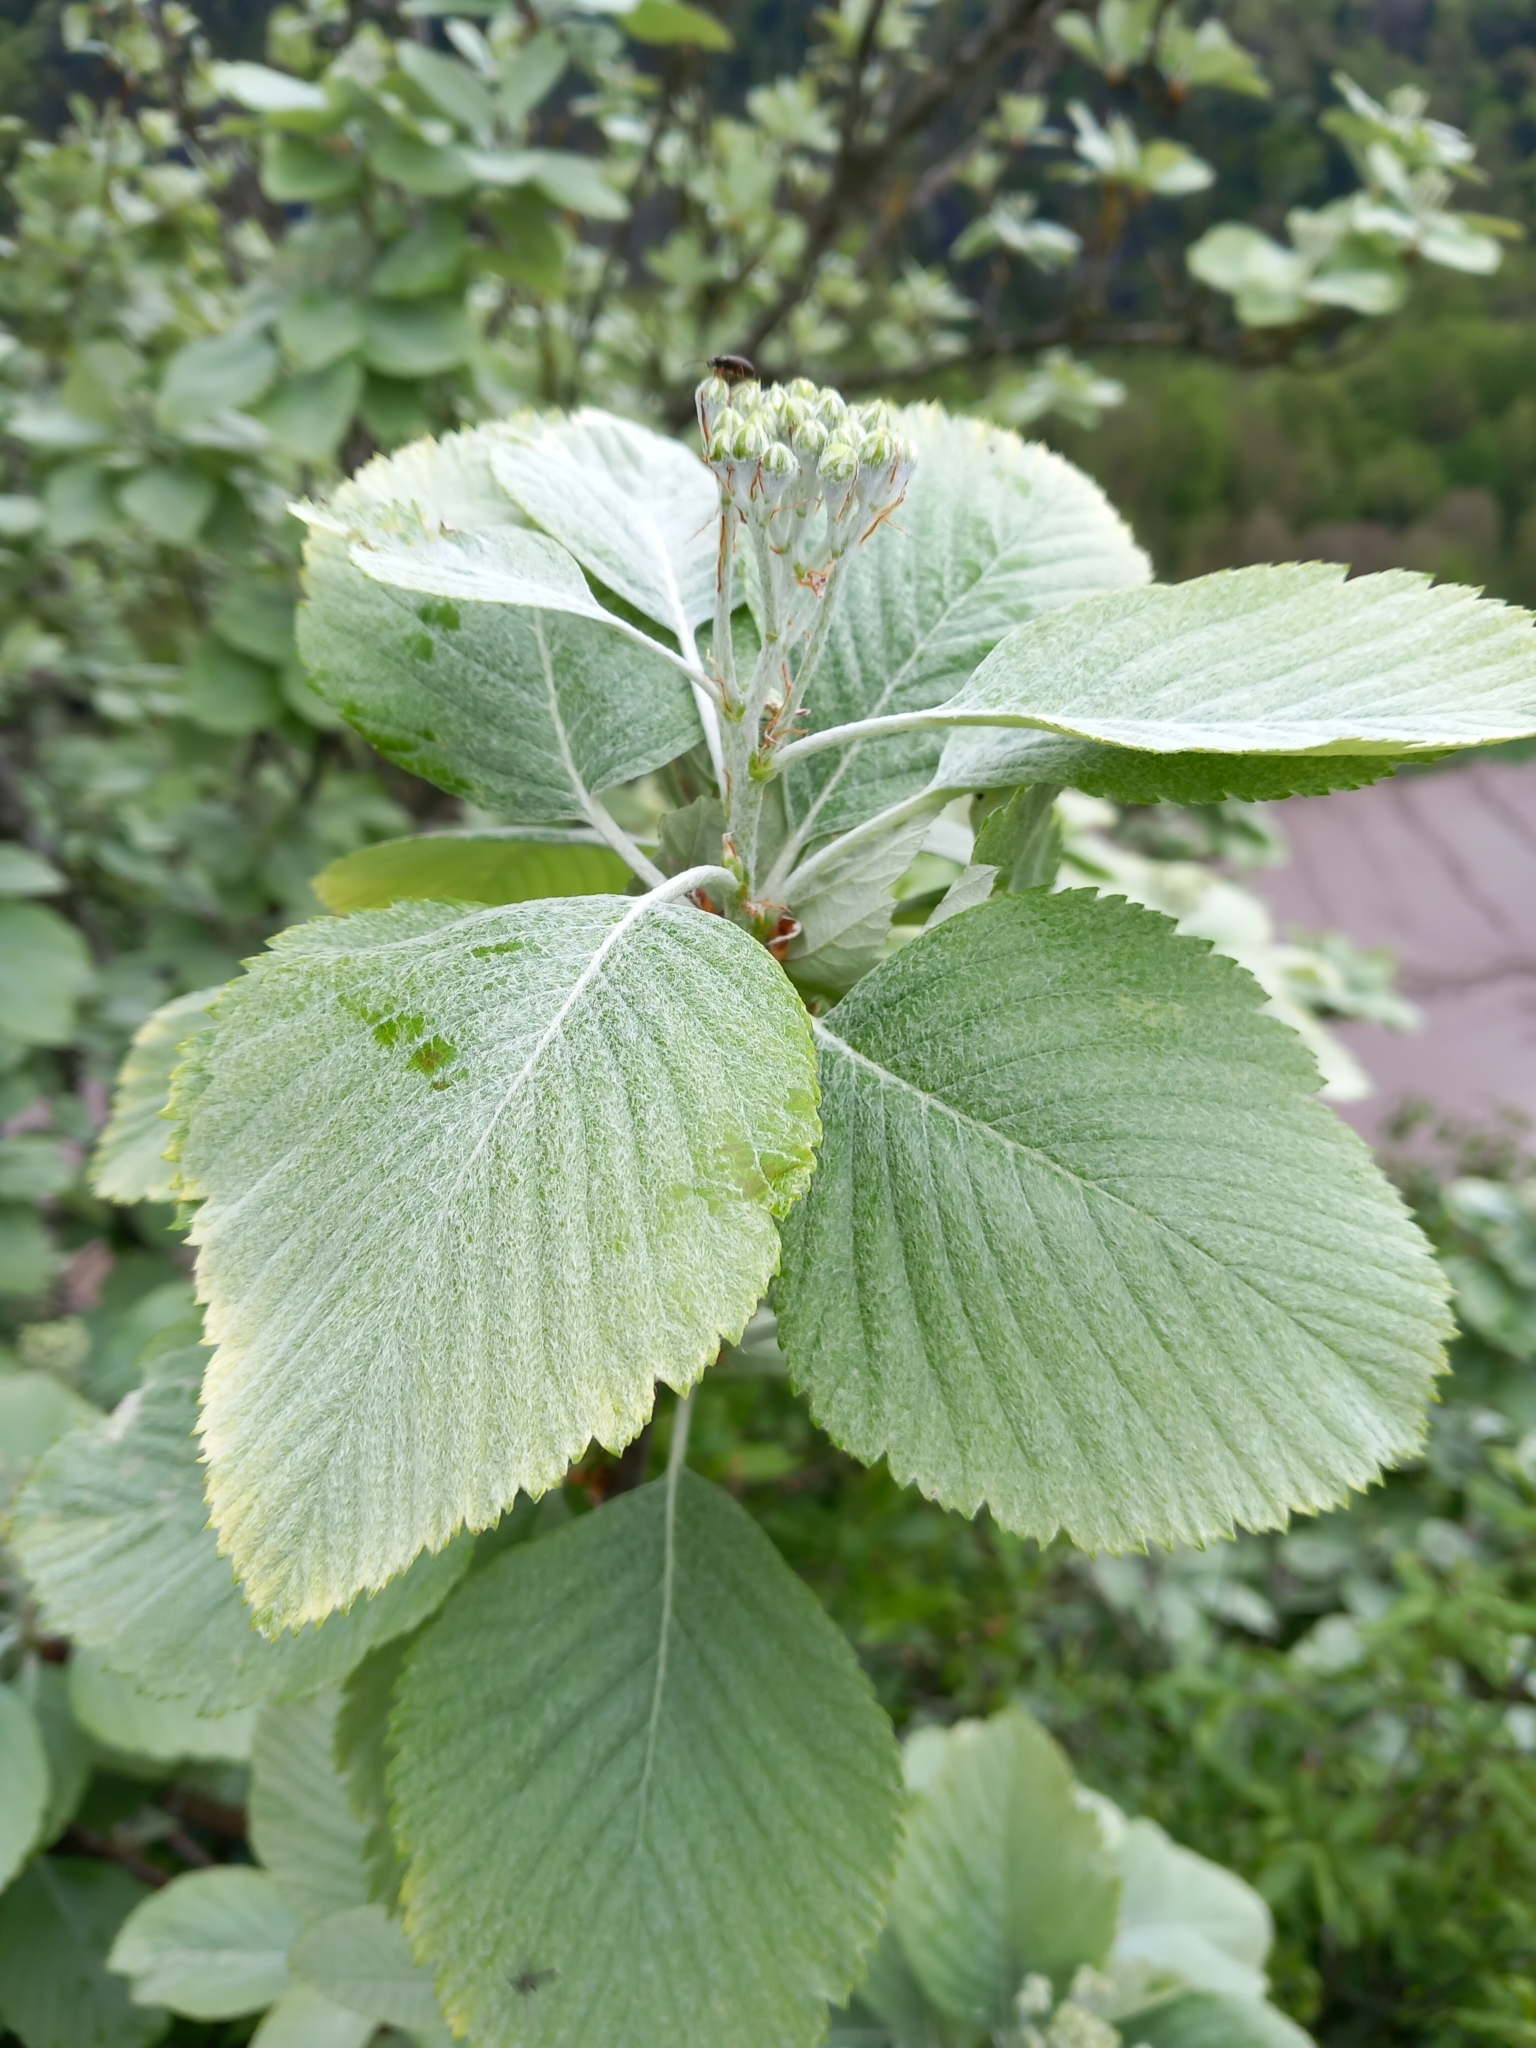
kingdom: Plantae
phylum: Tracheophyta
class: Magnoliopsida
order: Rosales
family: Rosaceae
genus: Aria
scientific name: Aria edulis
